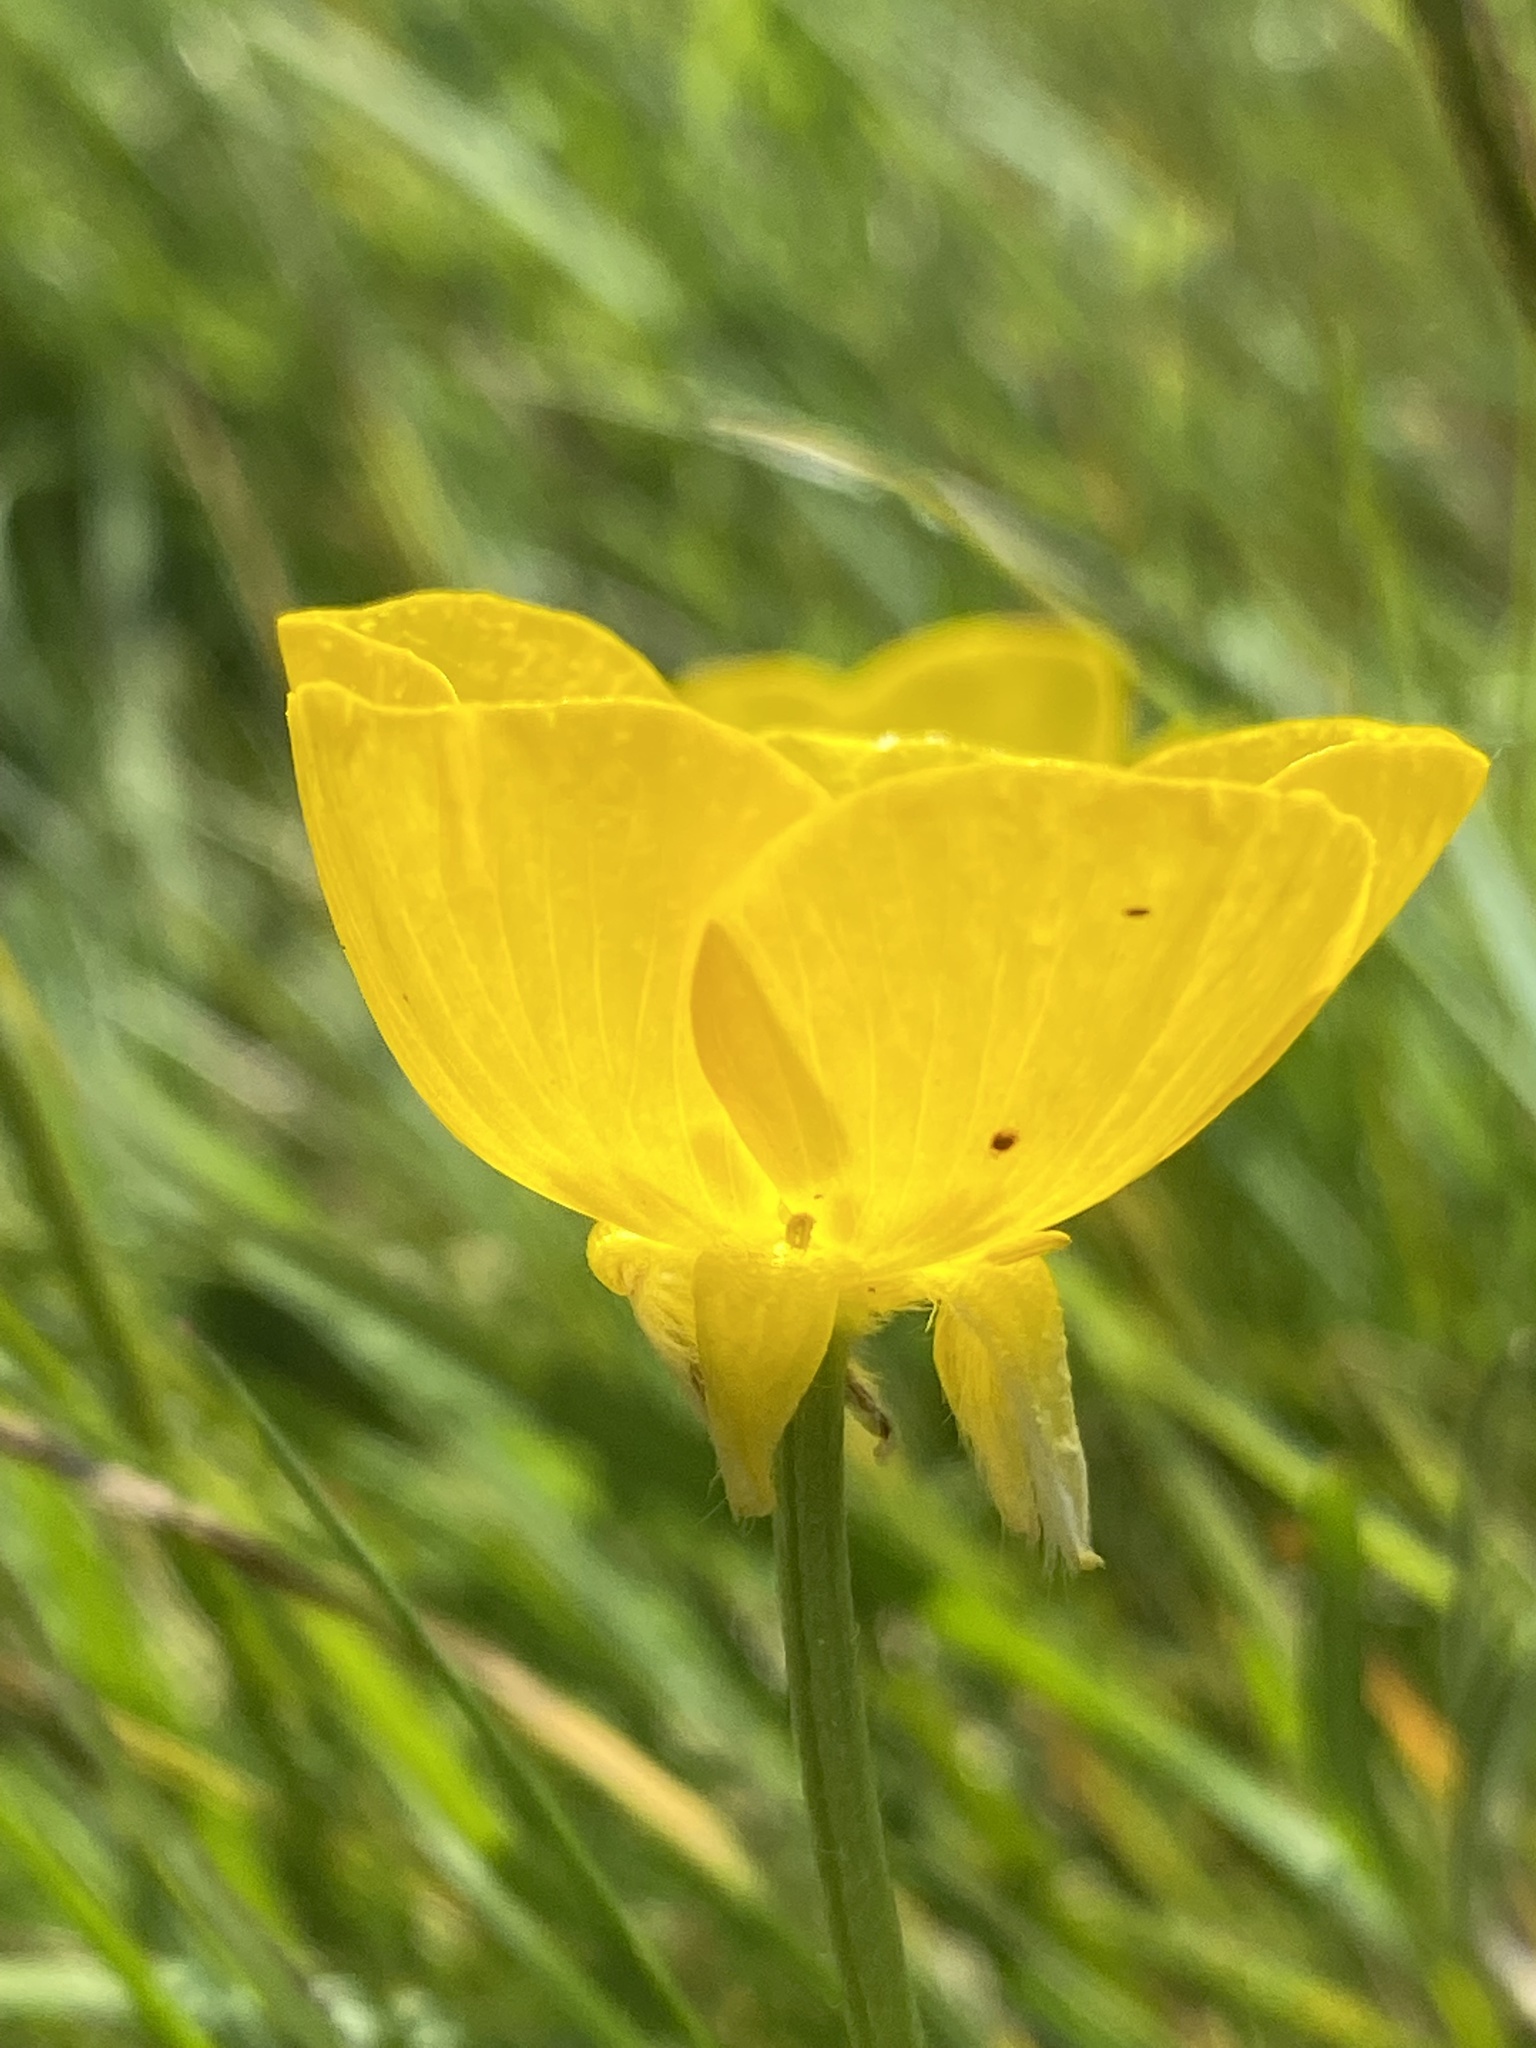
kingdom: Plantae
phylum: Tracheophyta
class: Magnoliopsida
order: Ranunculales
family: Ranunculaceae
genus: Ranunculus
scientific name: Ranunculus bulbosus
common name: Bulbous buttercup
